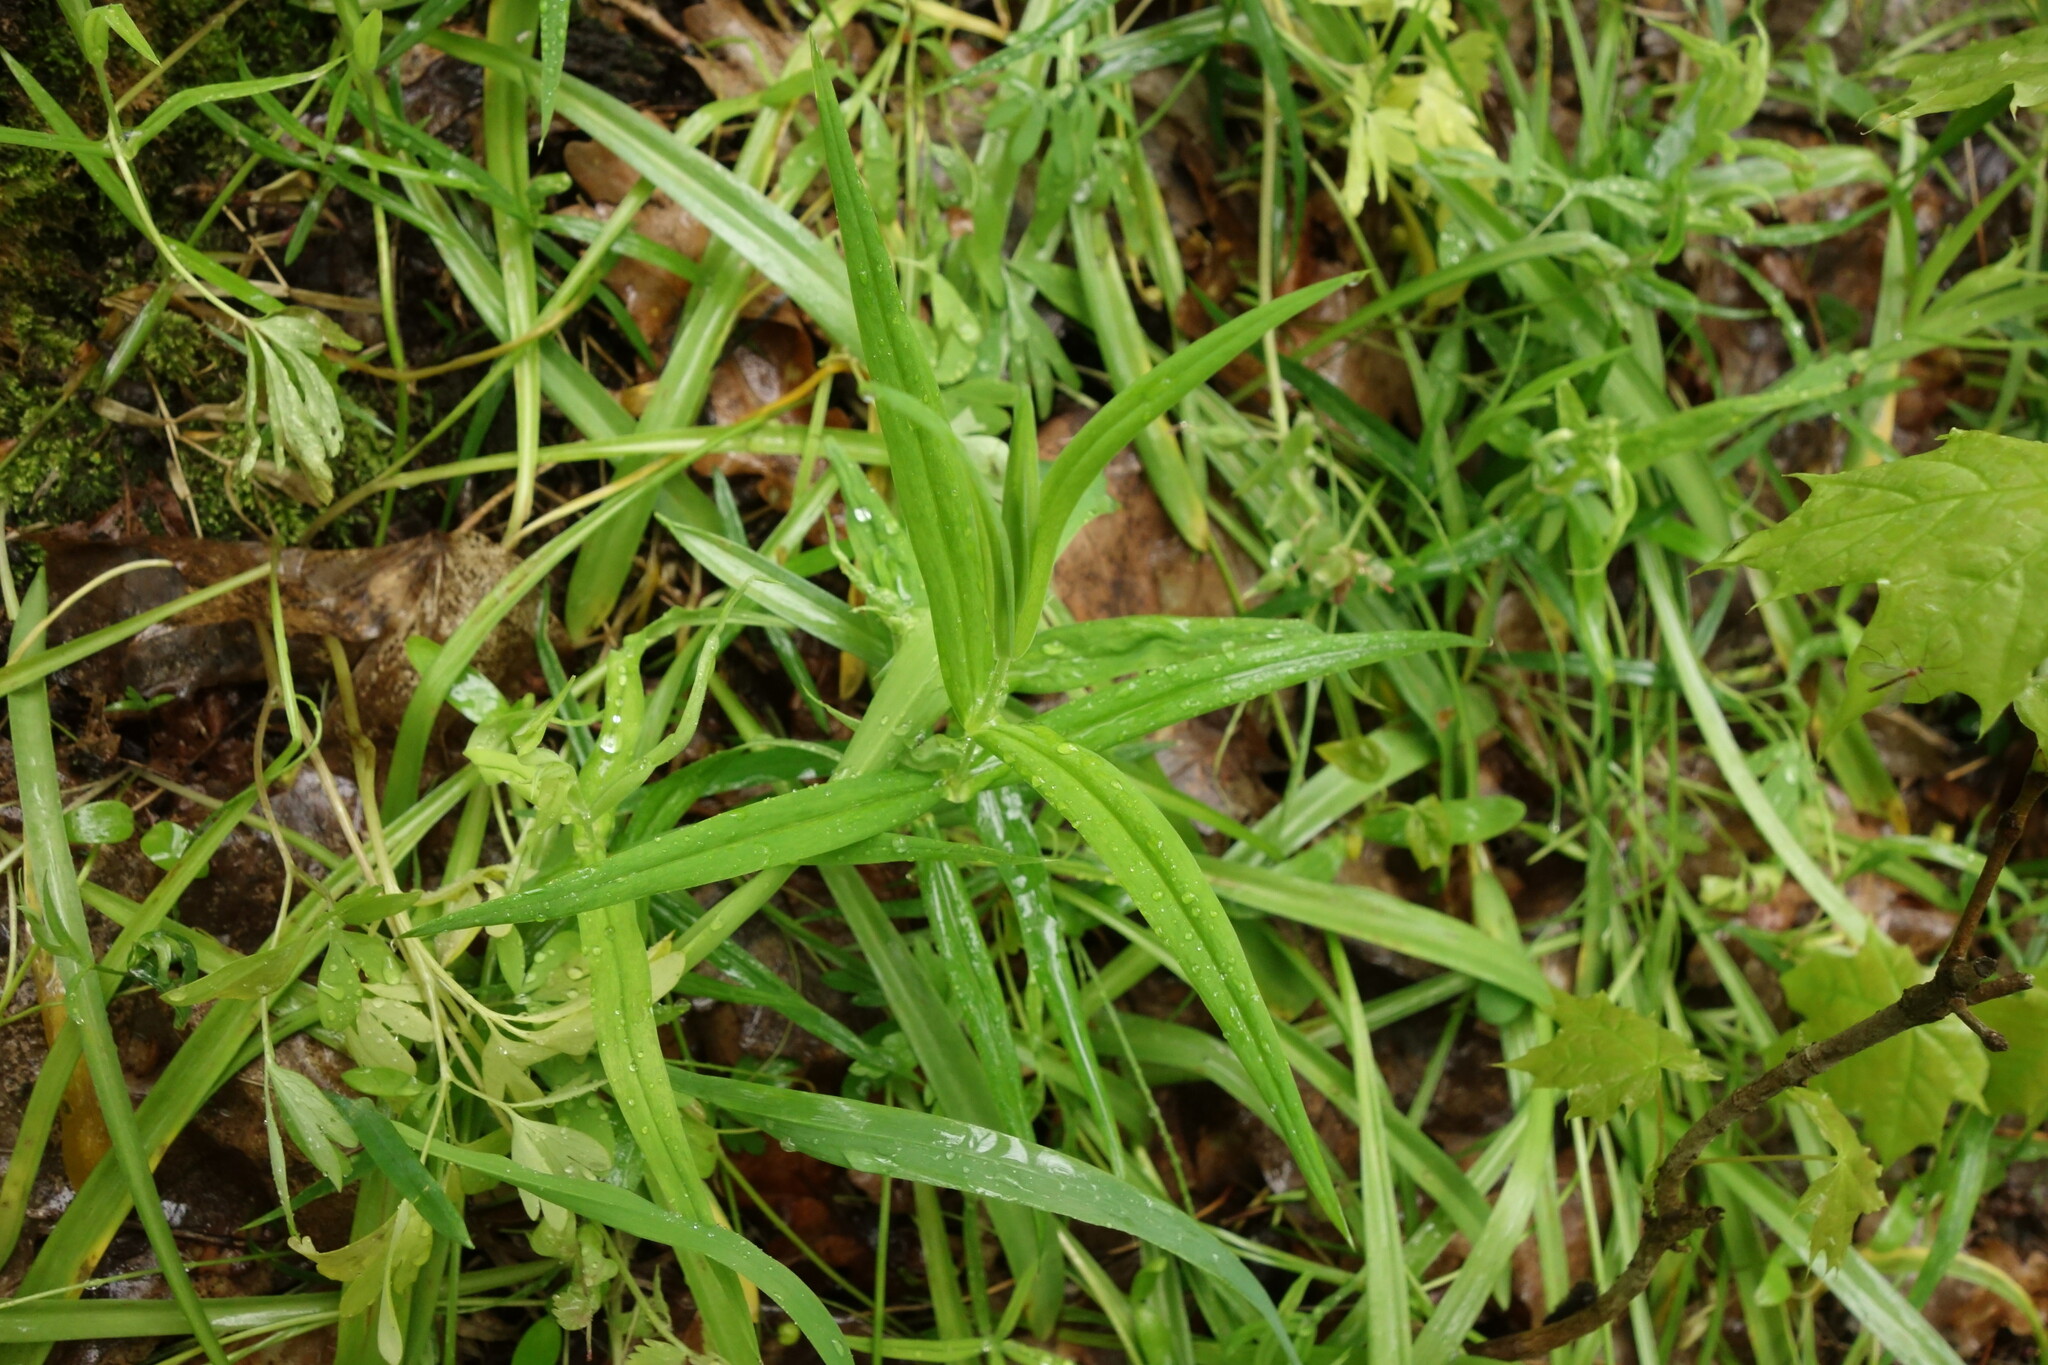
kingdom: Plantae
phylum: Tracheophyta
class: Magnoliopsida
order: Caryophyllales
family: Caryophyllaceae
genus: Rabelera
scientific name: Rabelera holostea
